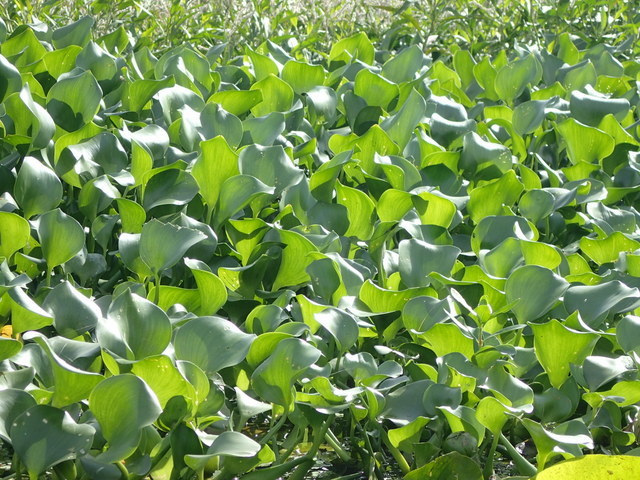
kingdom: Plantae
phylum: Tracheophyta
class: Liliopsida
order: Commelinales
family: Pontederiaceae
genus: Pontederia
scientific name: Pontederia crassipes
